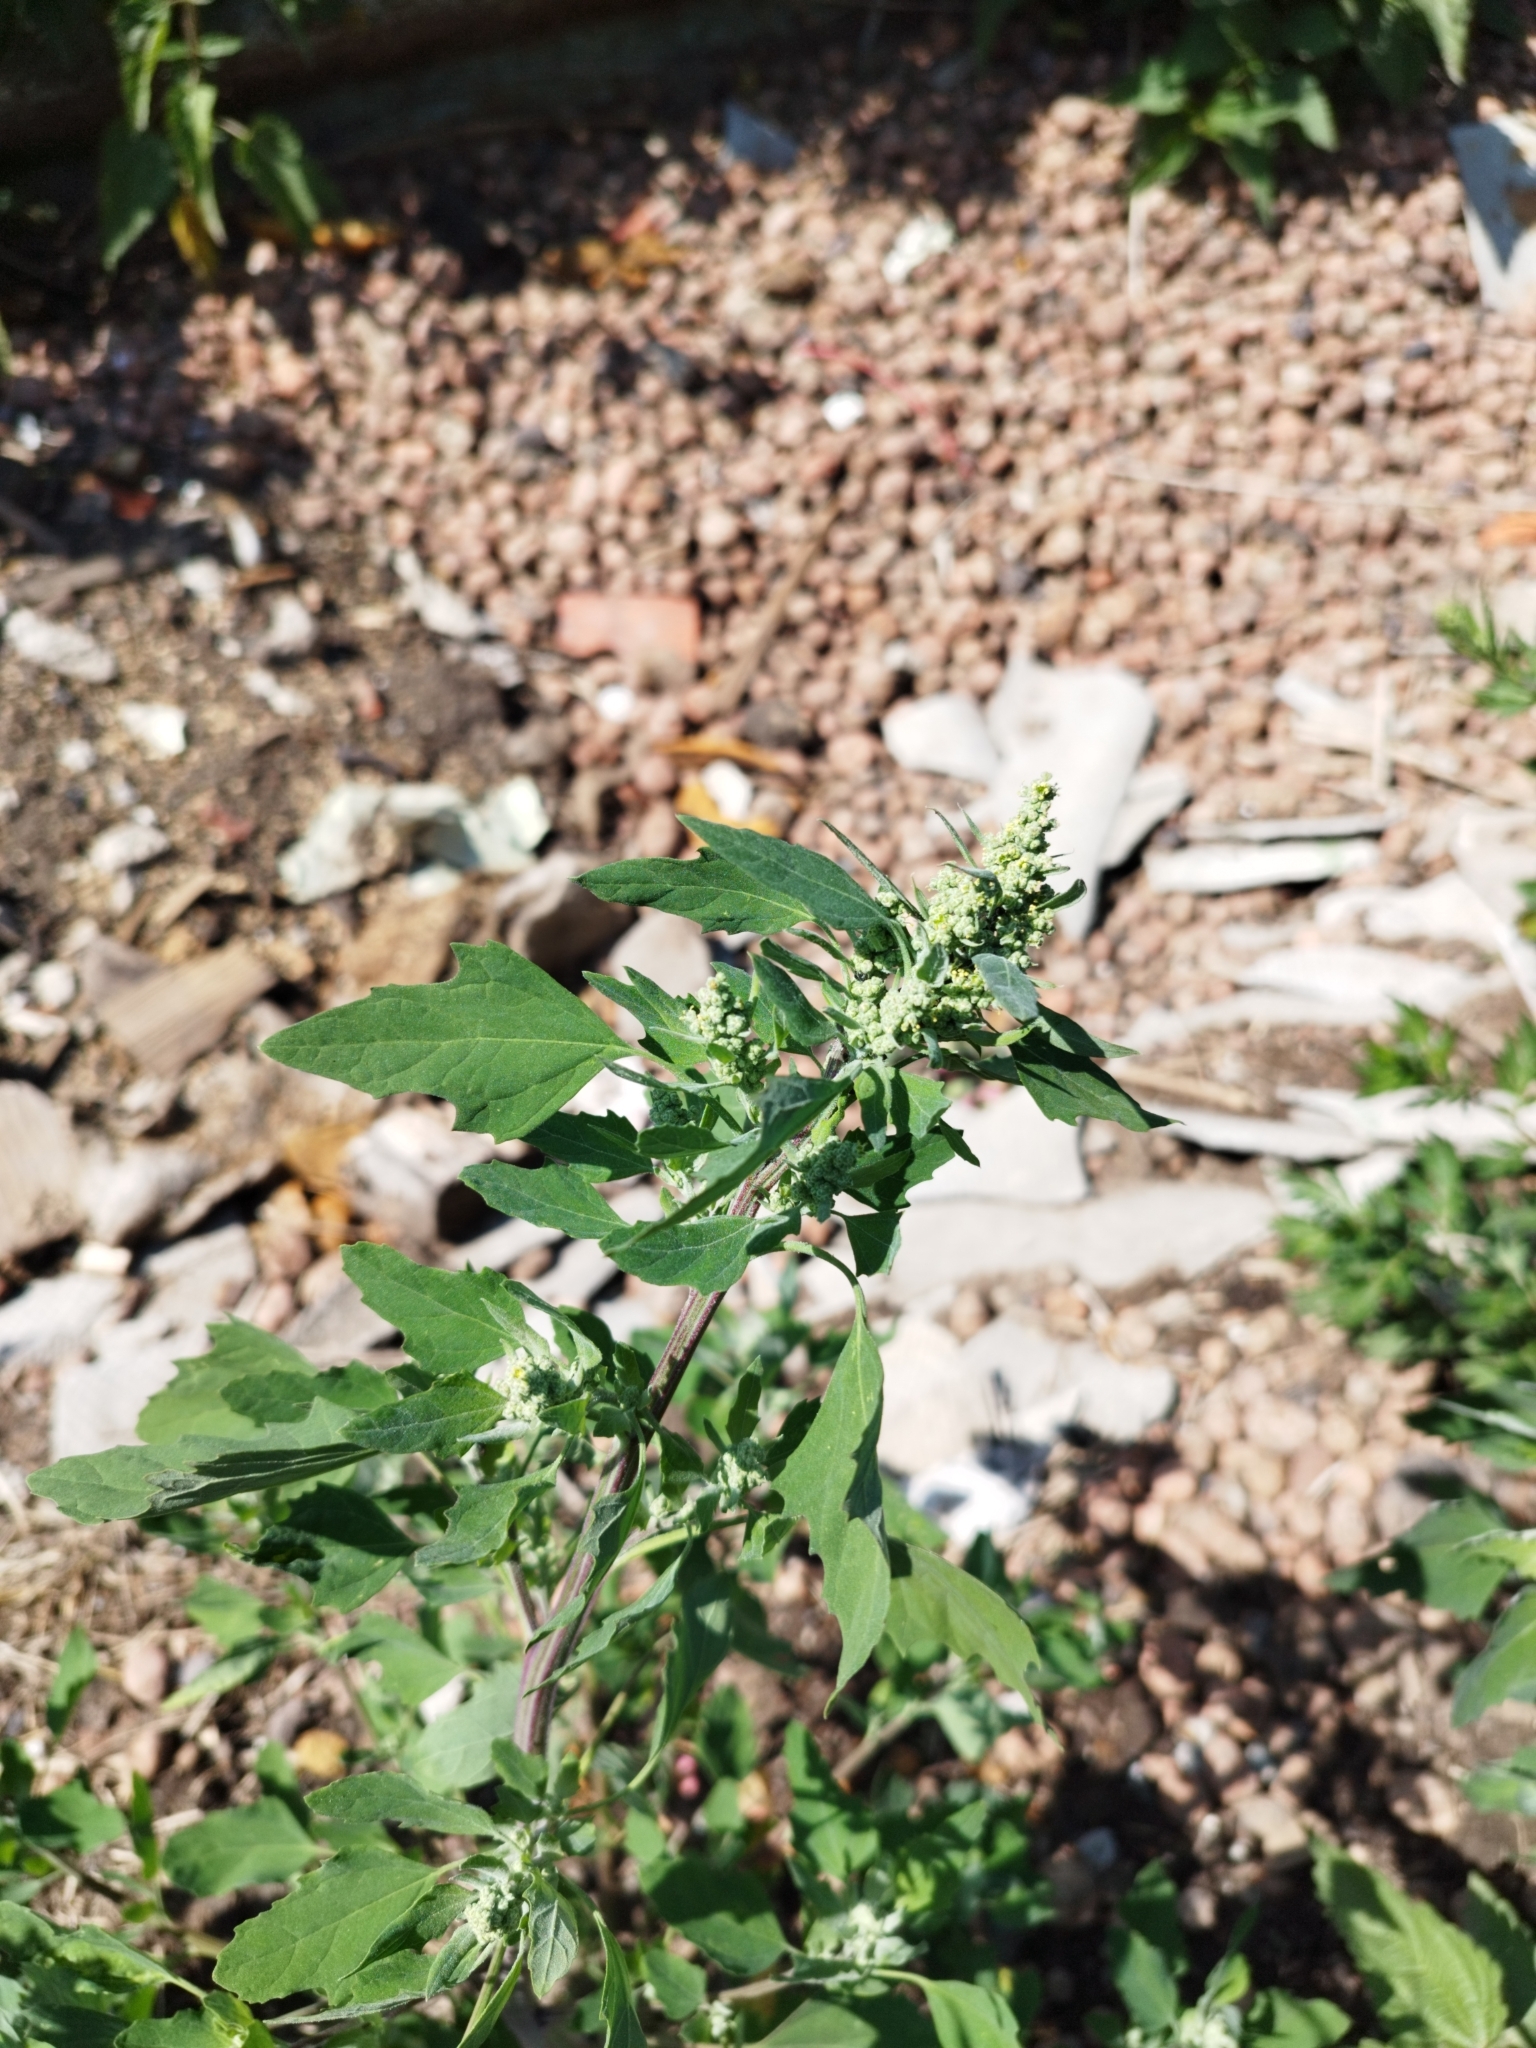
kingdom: Plantae
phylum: Tracheophyta
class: Magnoliopsida
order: Caryophyllales
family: Amaranthaceae
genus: Chenopodium
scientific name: Chenopodium album
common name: Fat-hen
